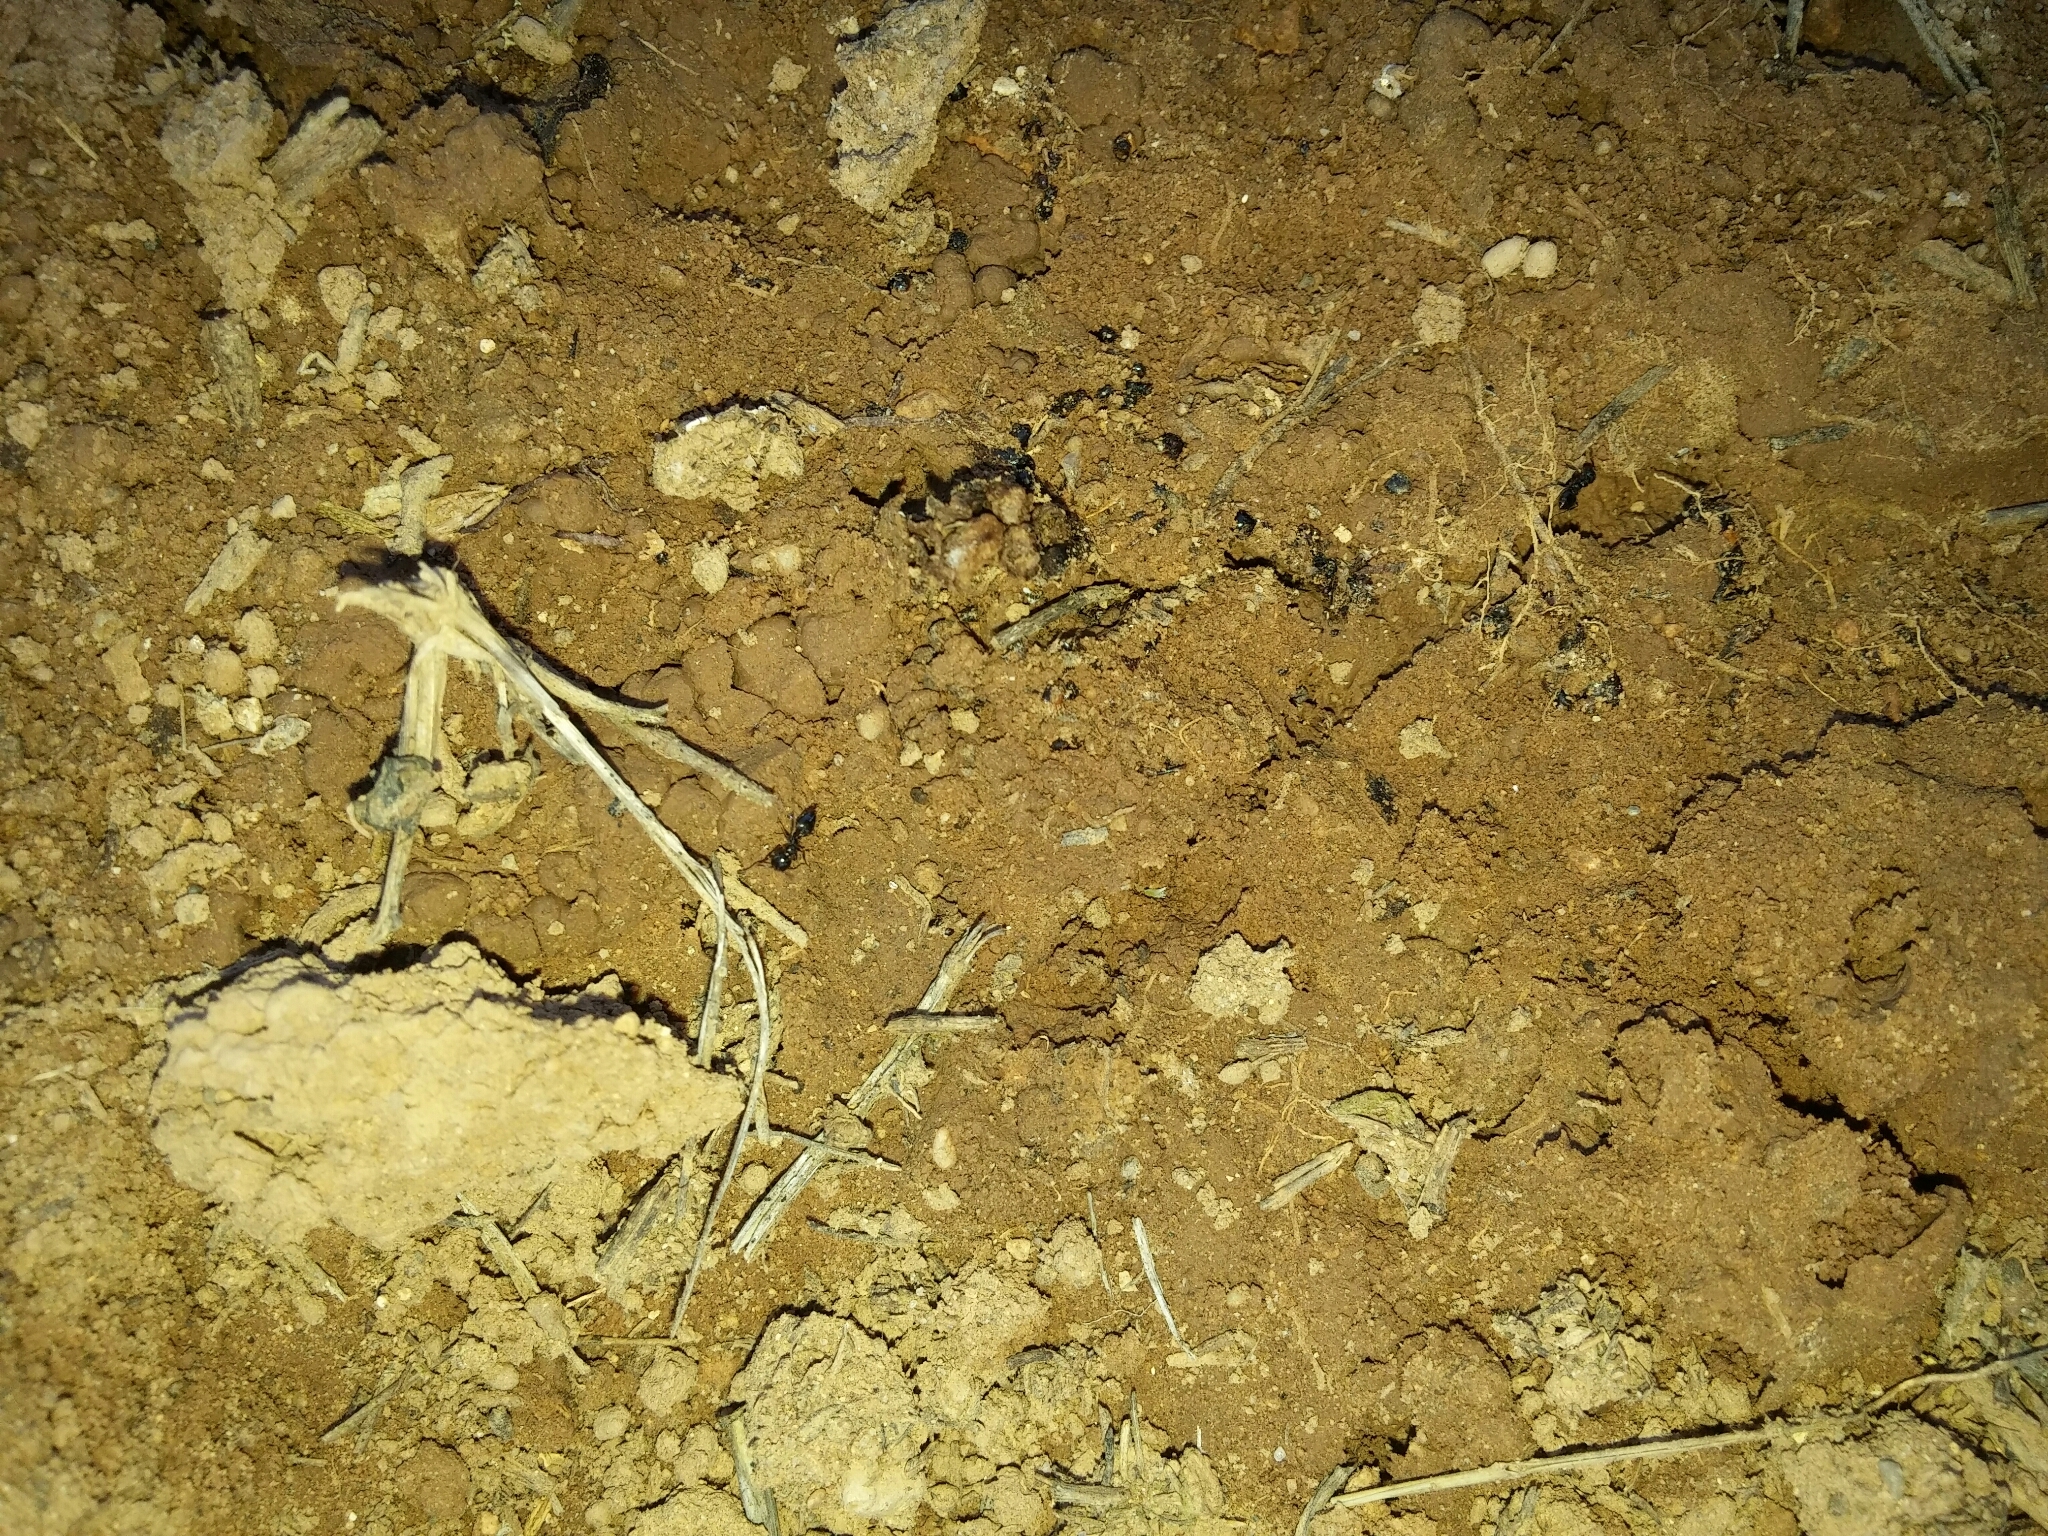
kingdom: Animalia
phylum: Arthropoda
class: Insecta
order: Hymenoptera
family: Formicidae
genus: Crematogaster
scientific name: Crematogaster auberti
